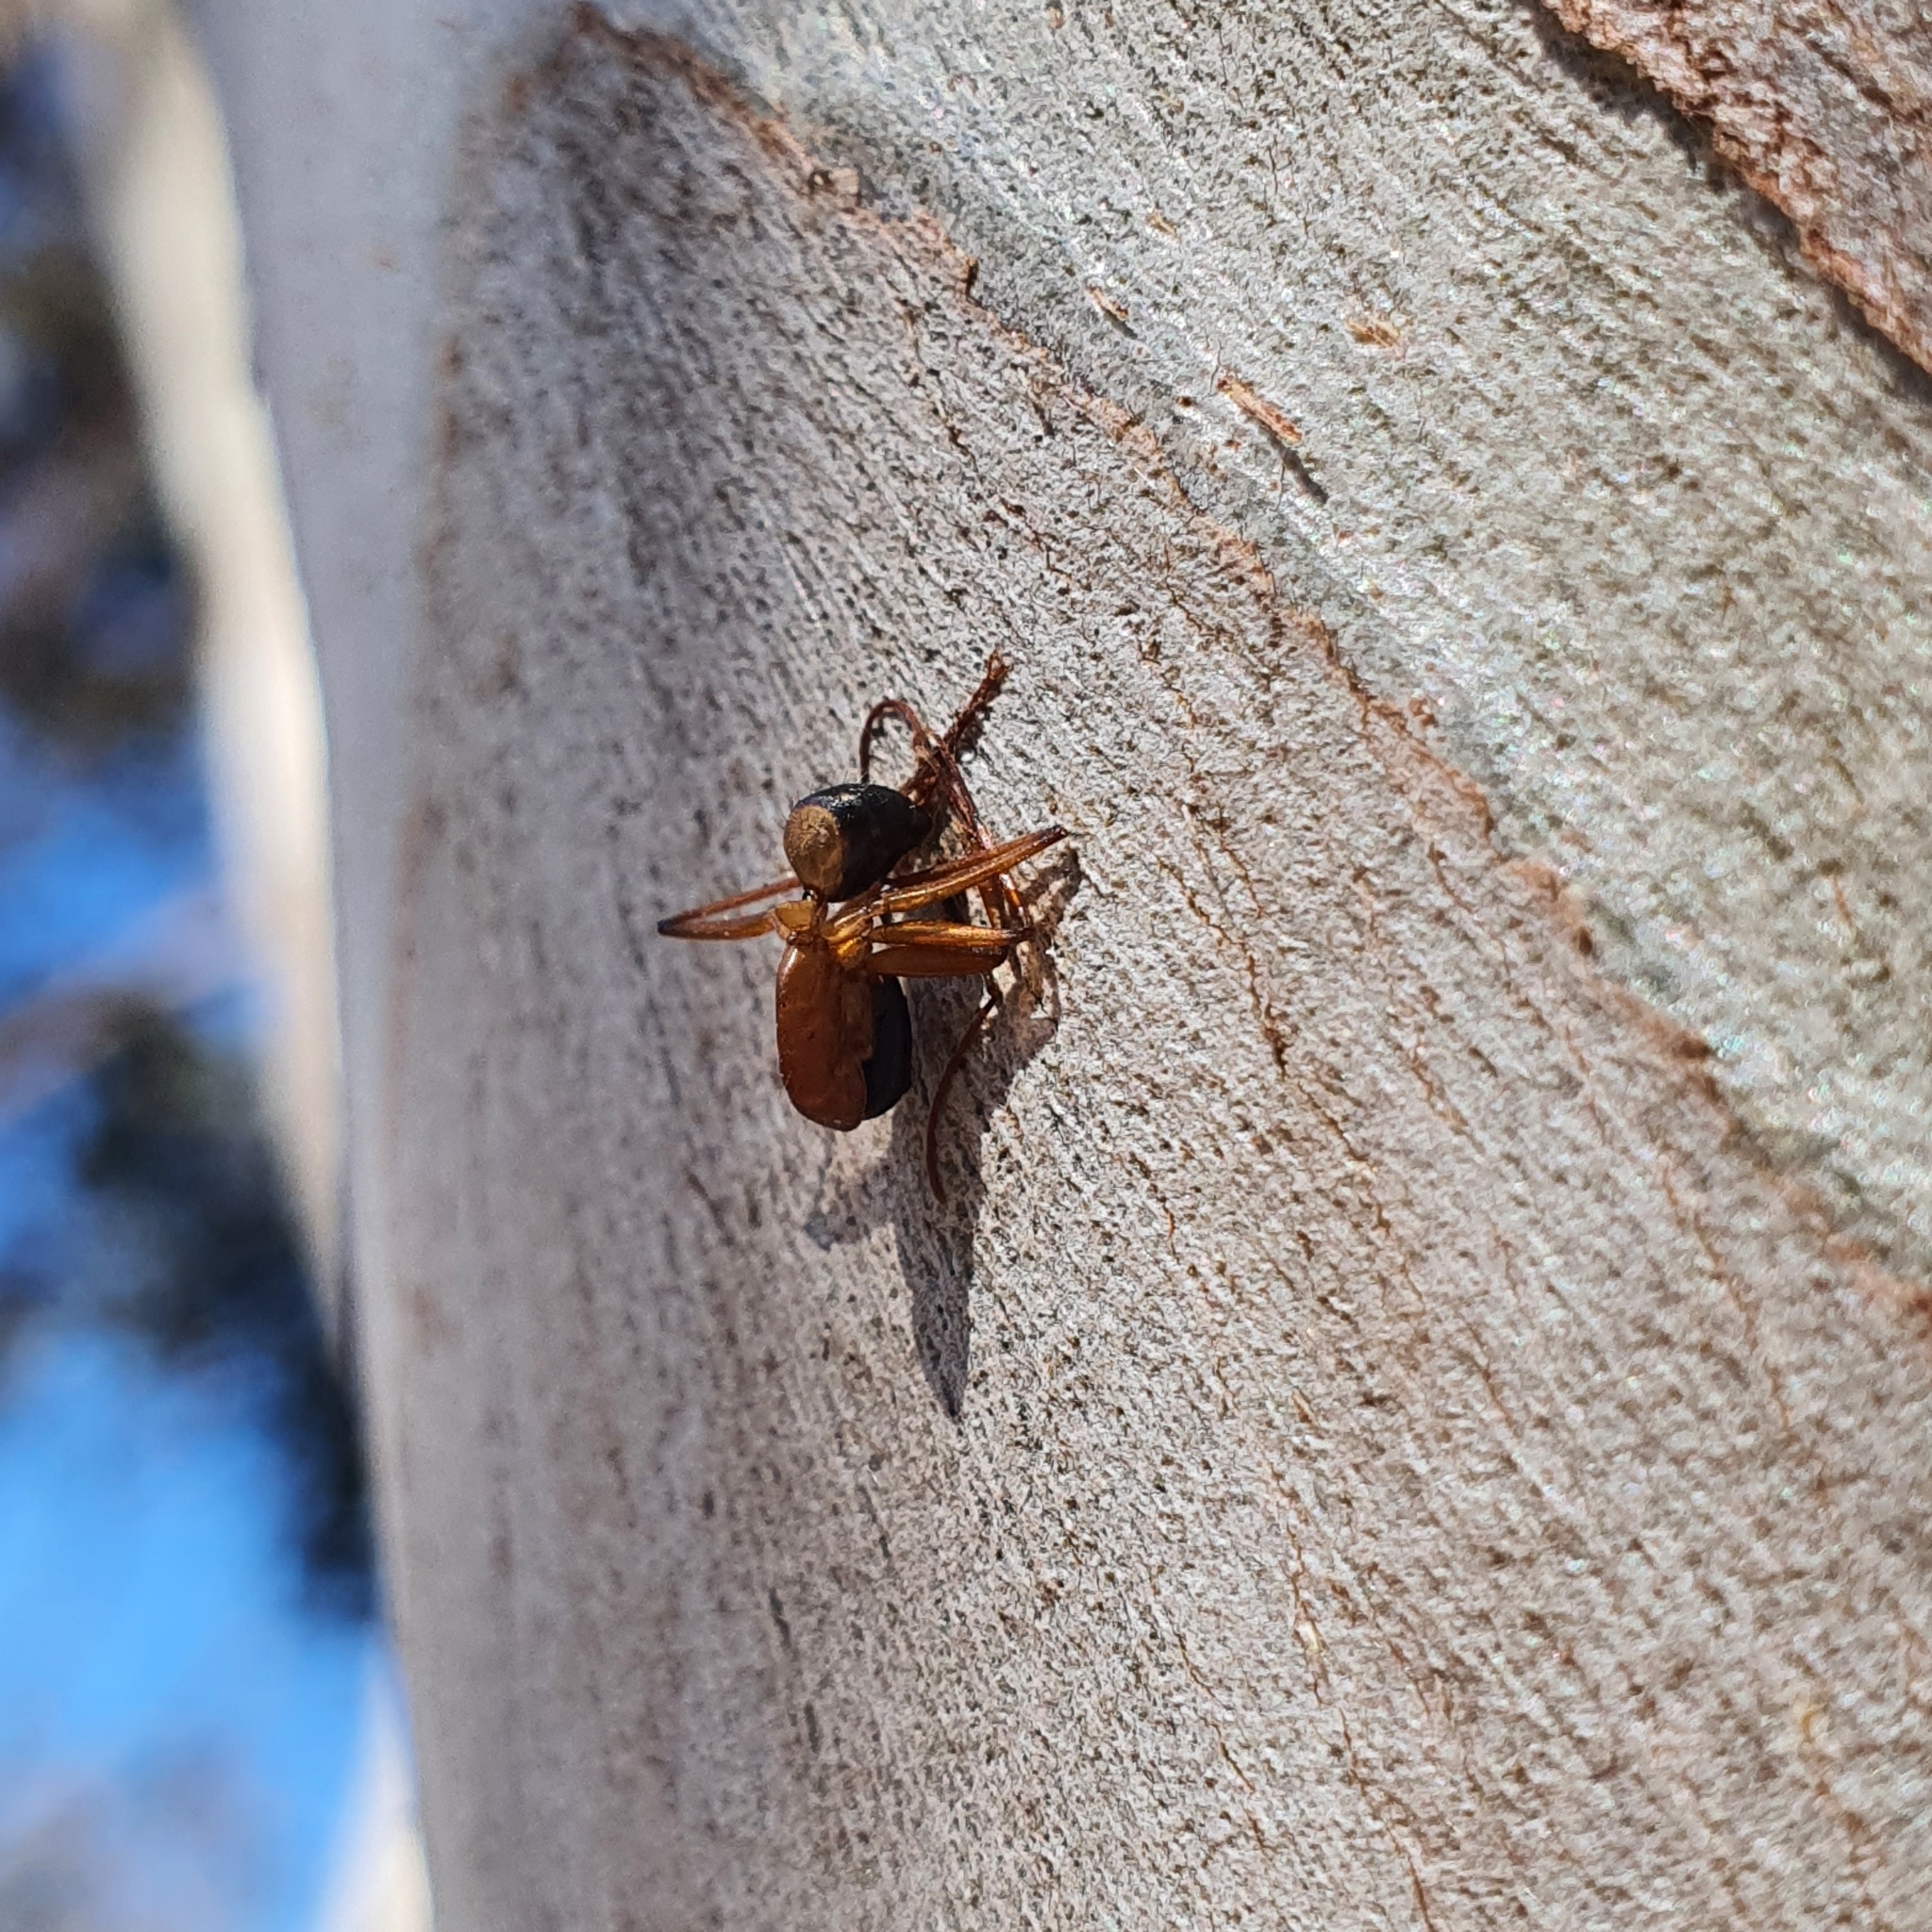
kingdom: Animalia
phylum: Arthropoda
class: Insecta
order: Hymenoptera
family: Formicidae
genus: Camponotus
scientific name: Camponotus consobrinus
